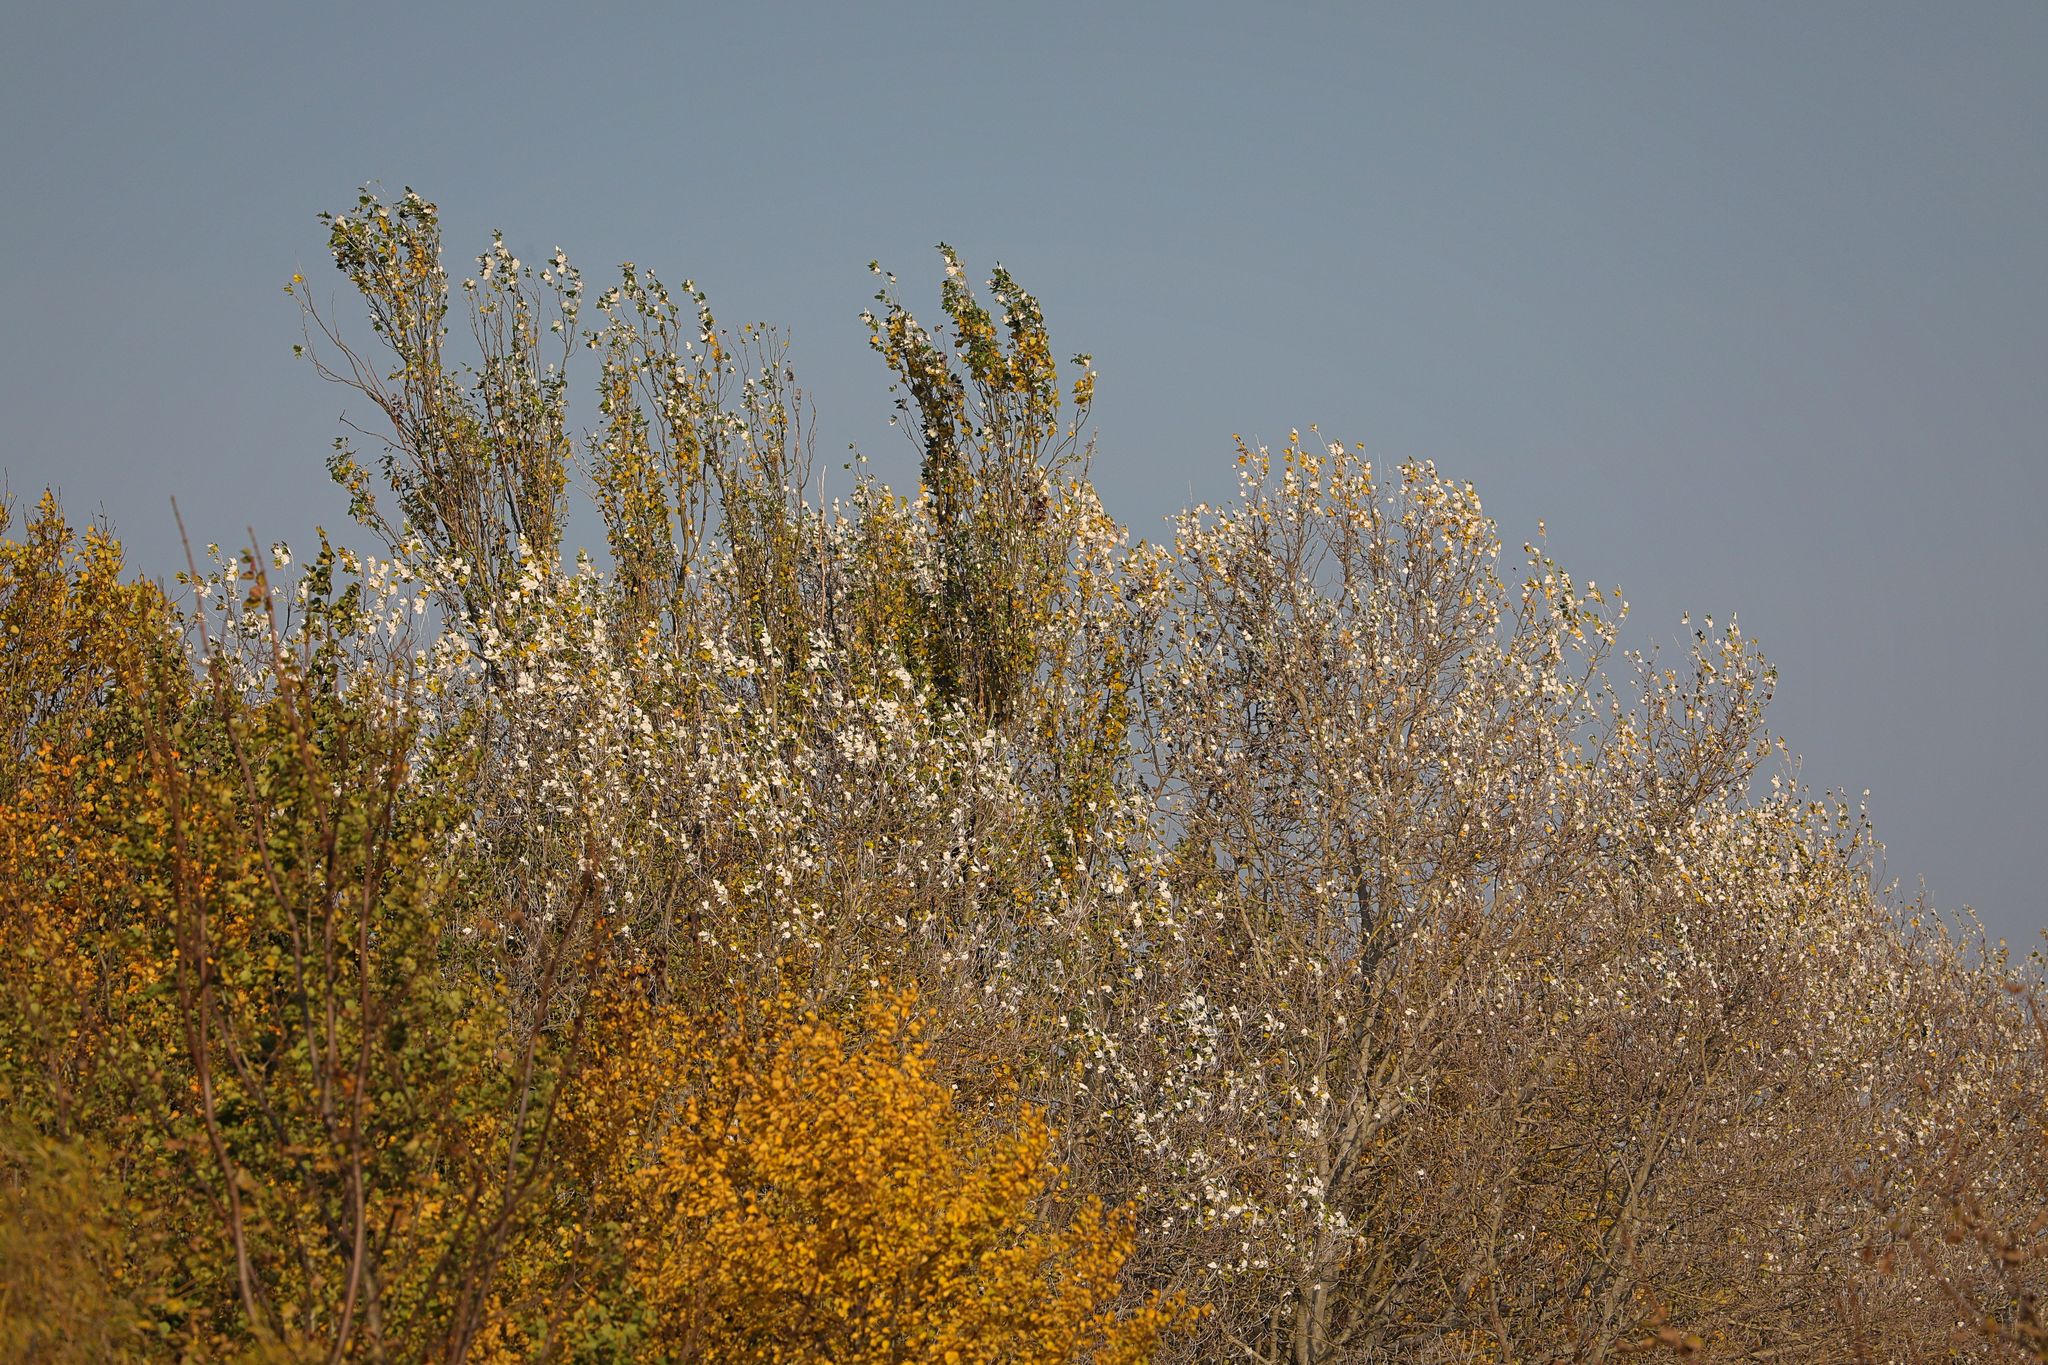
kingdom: Plantae
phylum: Tracheophyta
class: Magnoliopsida
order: Malpighiales
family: Salicaceae
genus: Populus
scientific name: Populus alba
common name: White poplar
